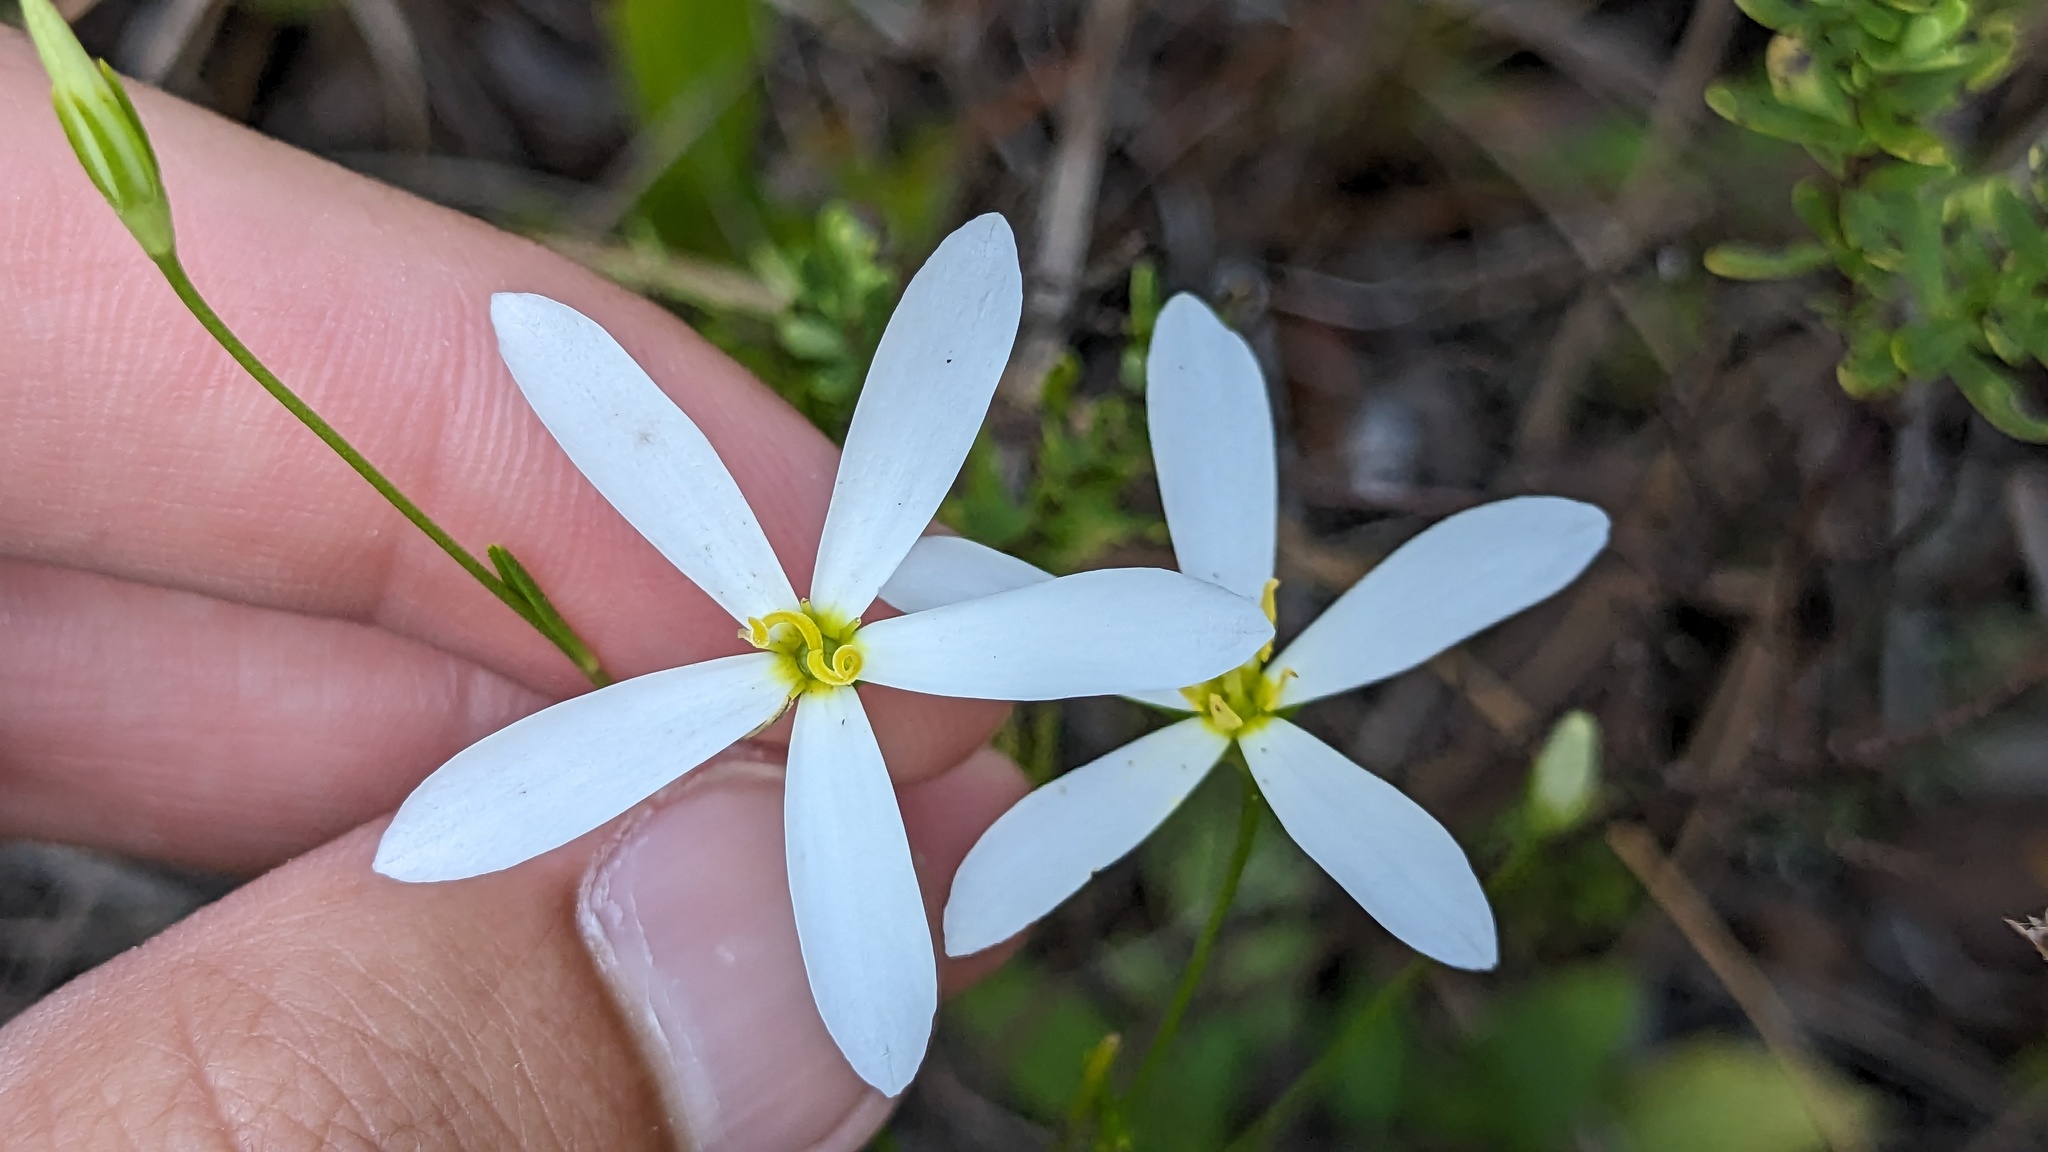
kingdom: Plantae
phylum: Tracheophyta
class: Magnoliopsida
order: Gentianales
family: Gentianaceae
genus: Sabatia
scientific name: Sabatia brevifolia
